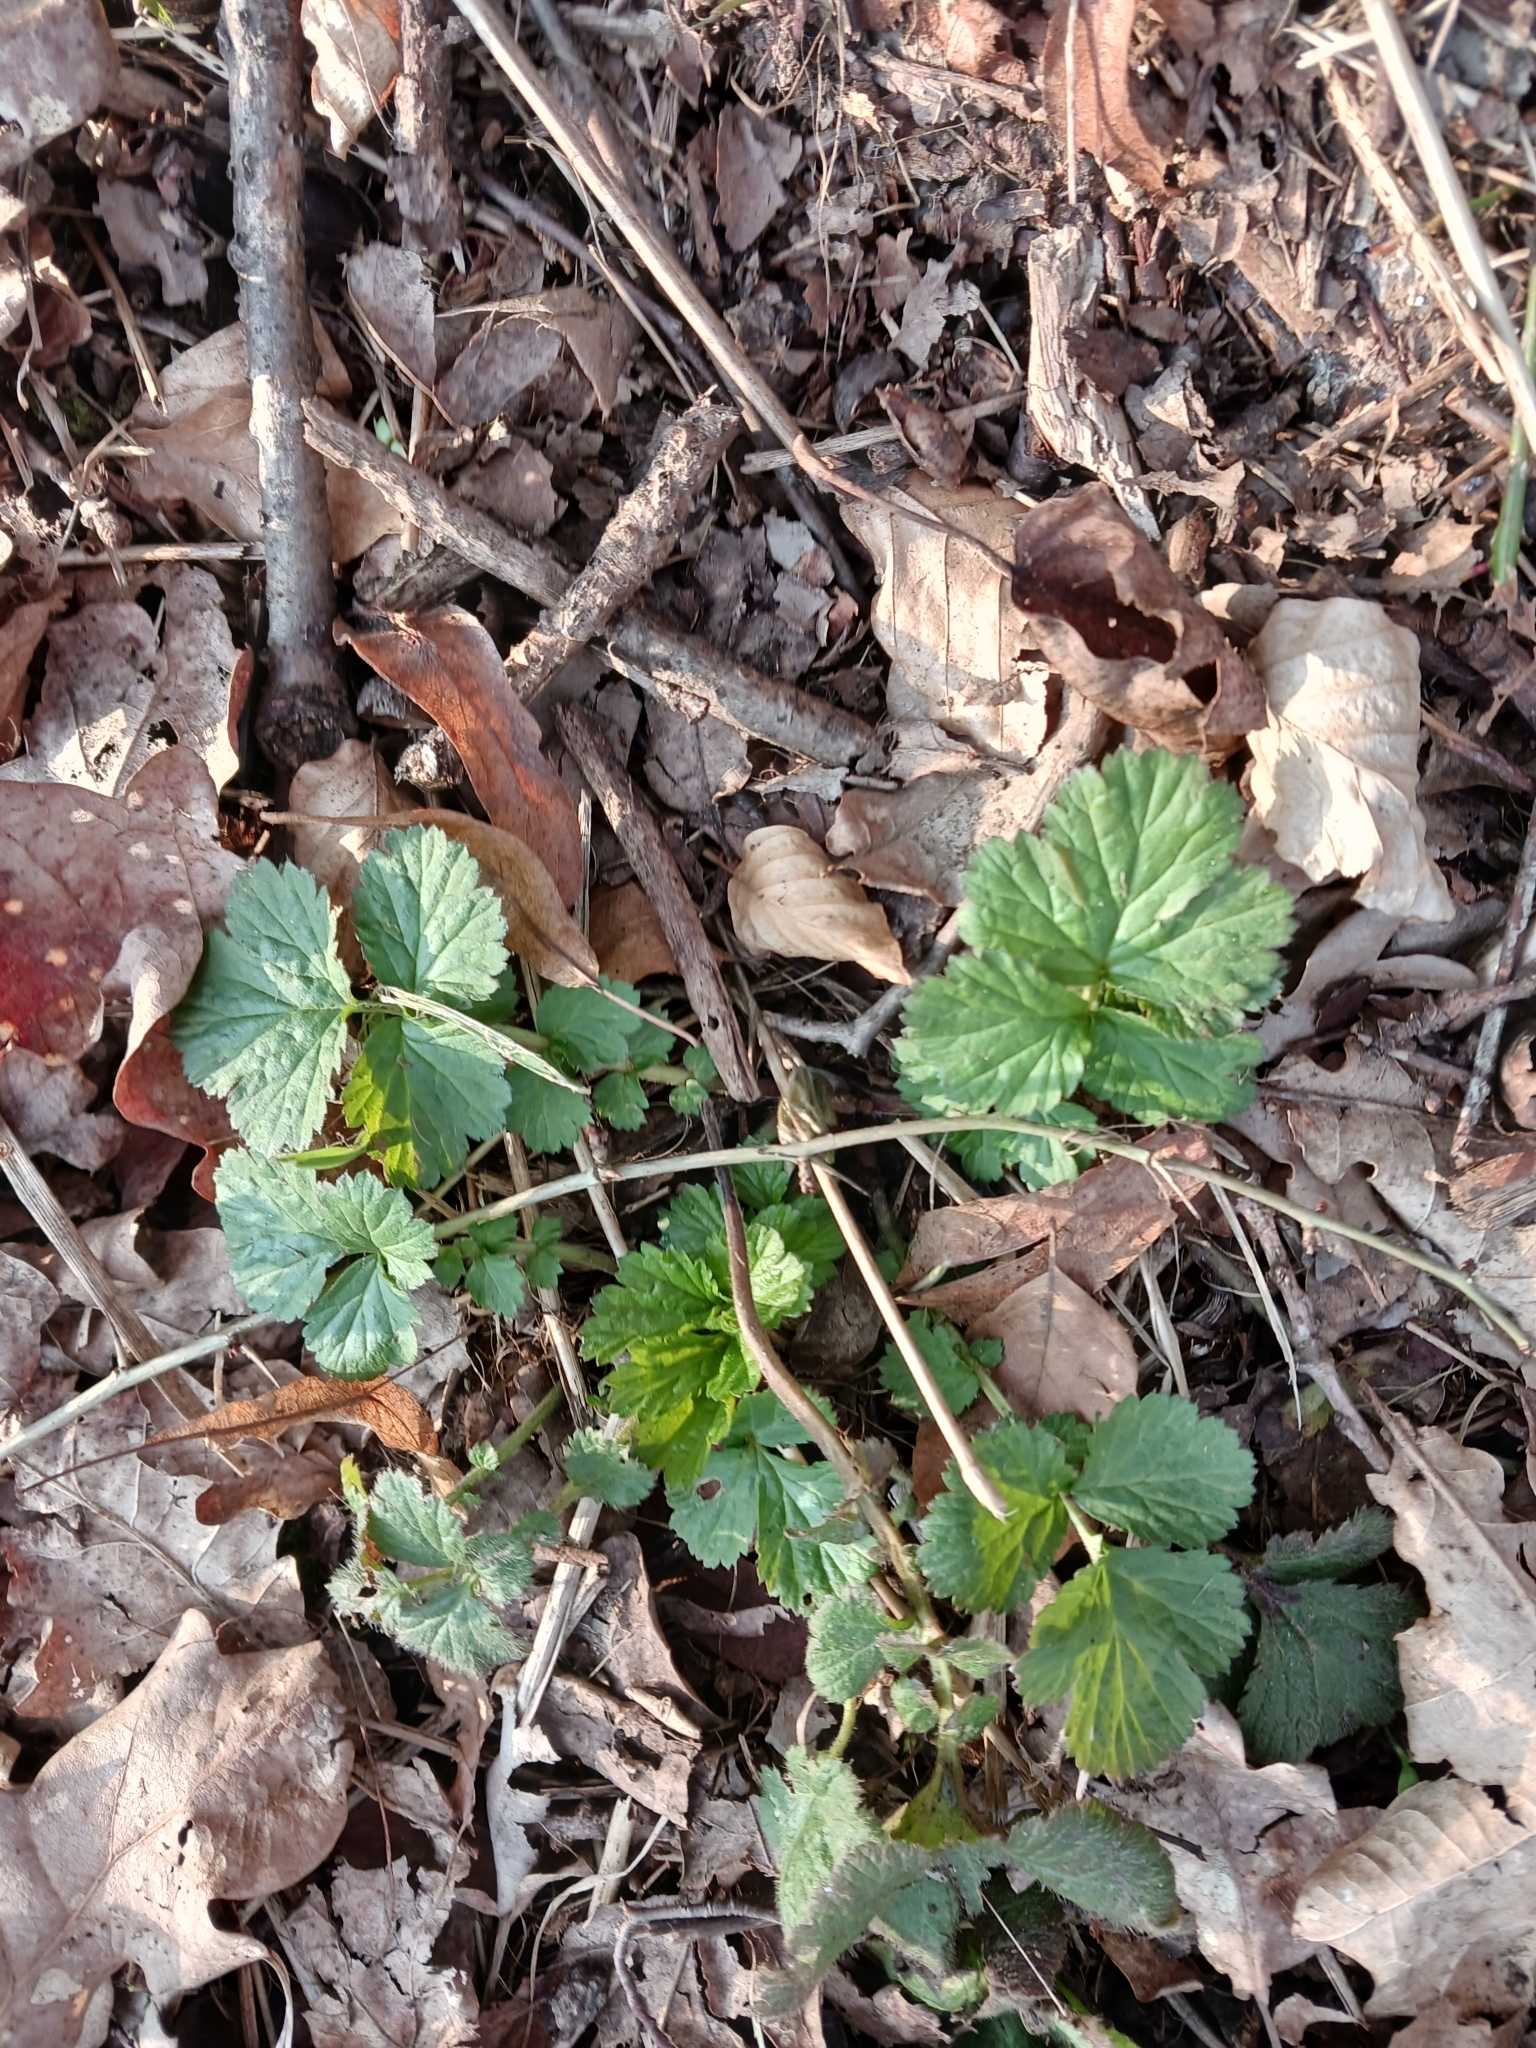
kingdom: Plantae
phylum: Tracheophyta
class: Magnoliopsida
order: Rosales
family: Rosaceae
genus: Geum
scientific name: Geum urbanum
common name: Wood avens
